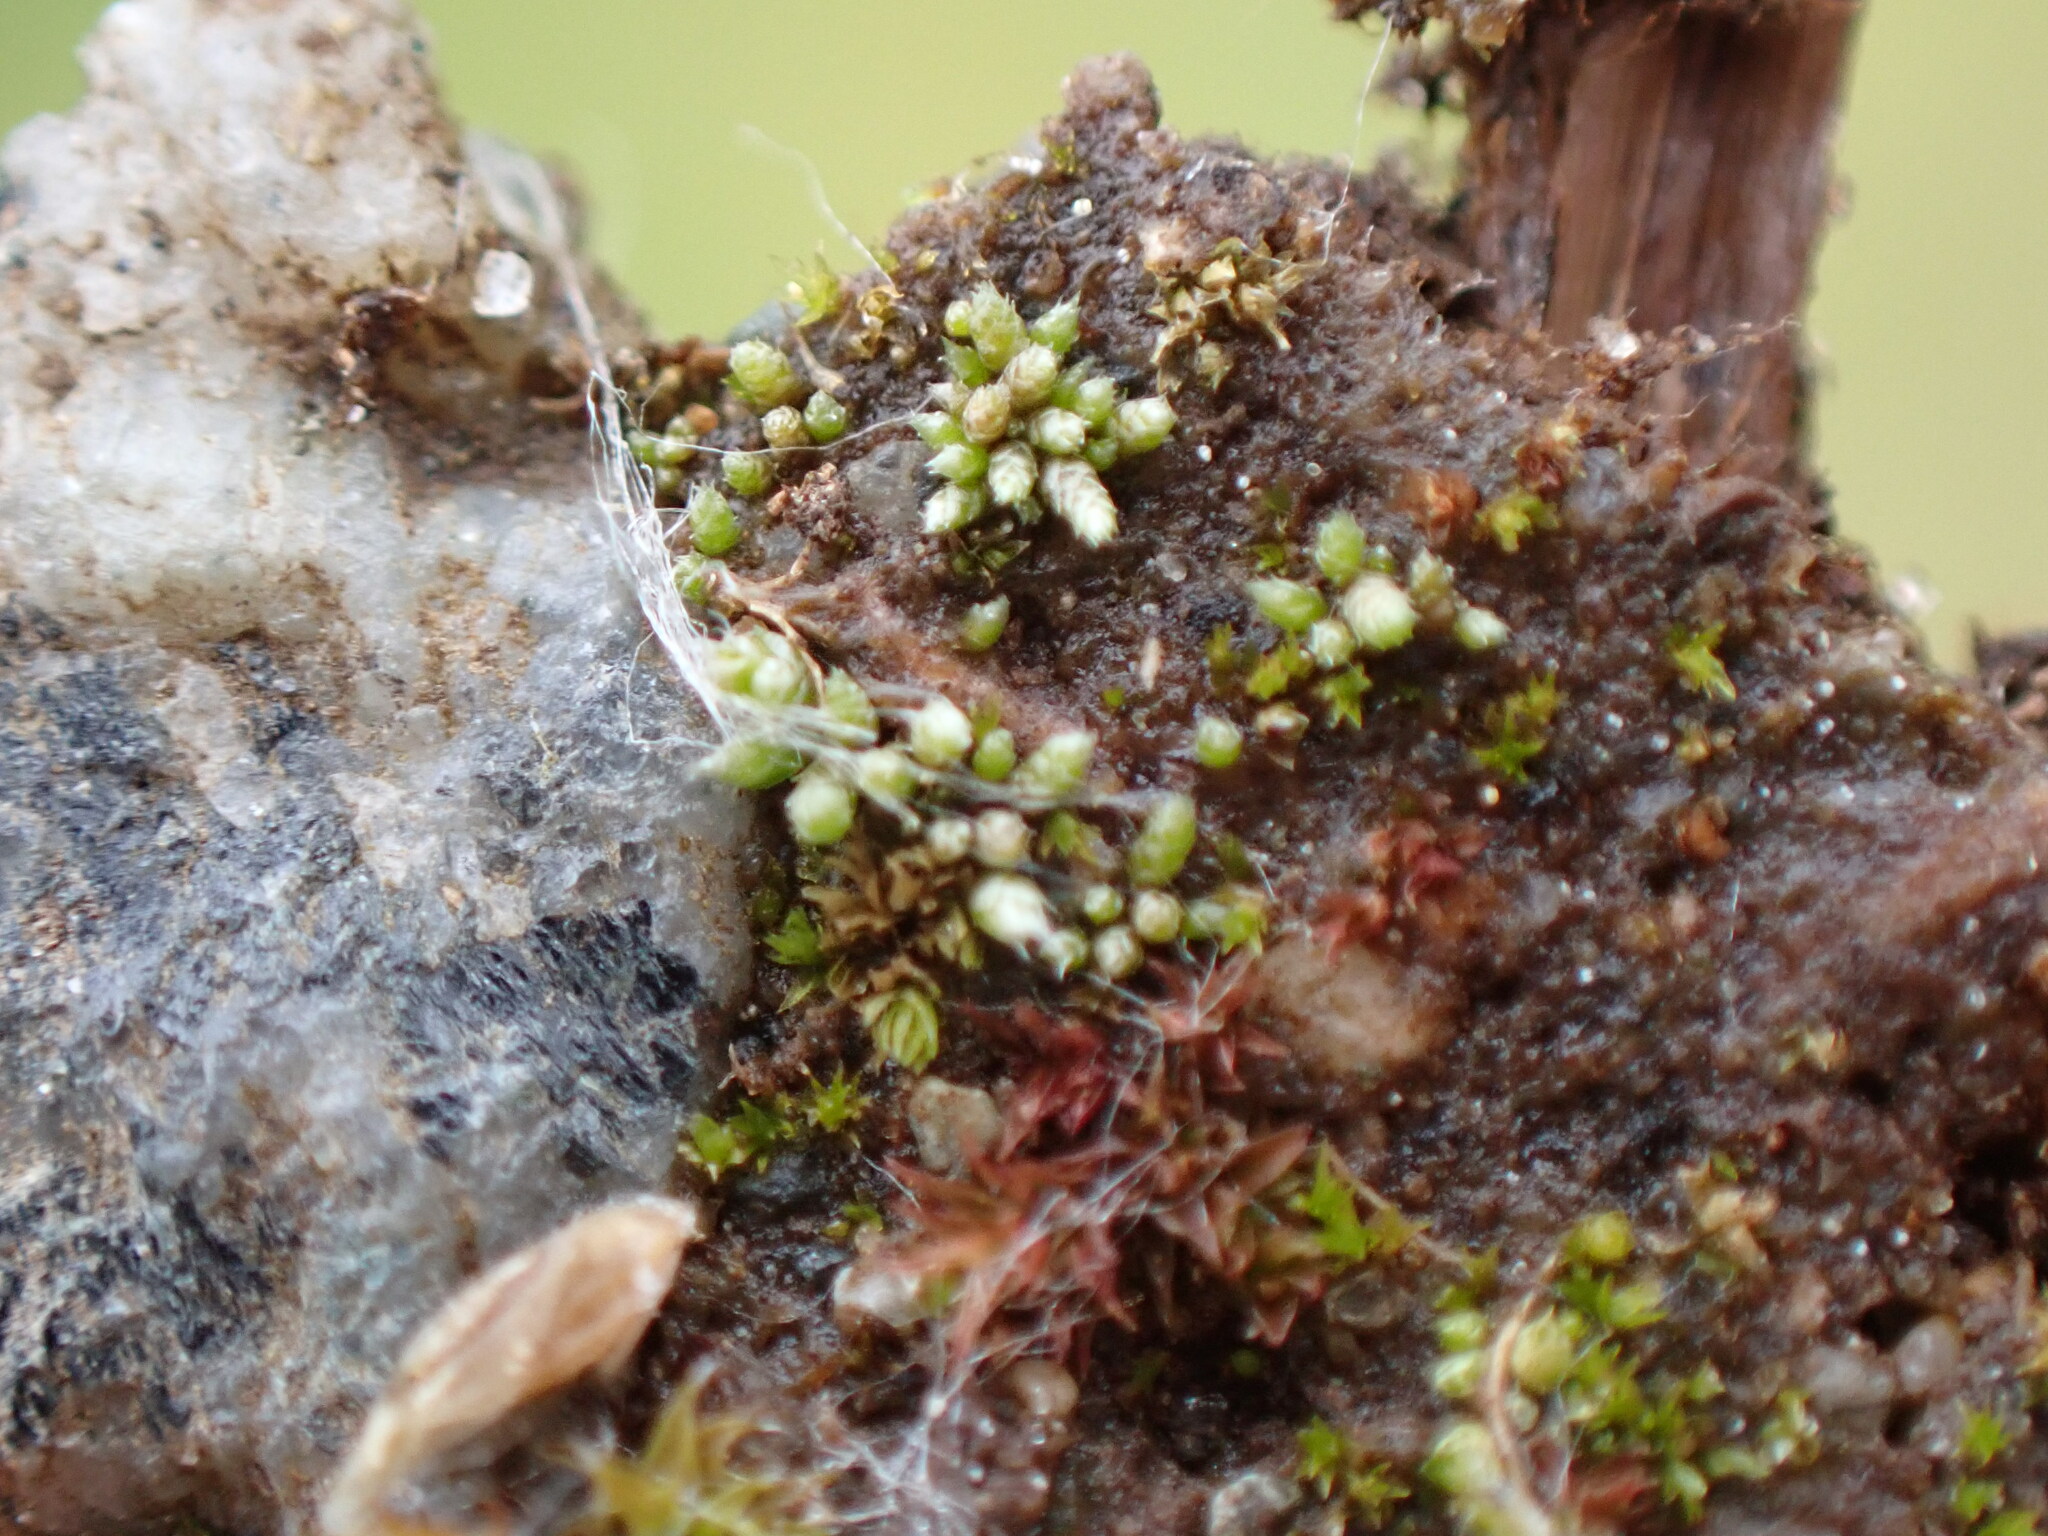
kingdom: Plantae
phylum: Bryophyta
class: Bryopsida
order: Bryales
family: Bryaceae
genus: Bryum
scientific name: Bryum argenteum
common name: Silver-moss
